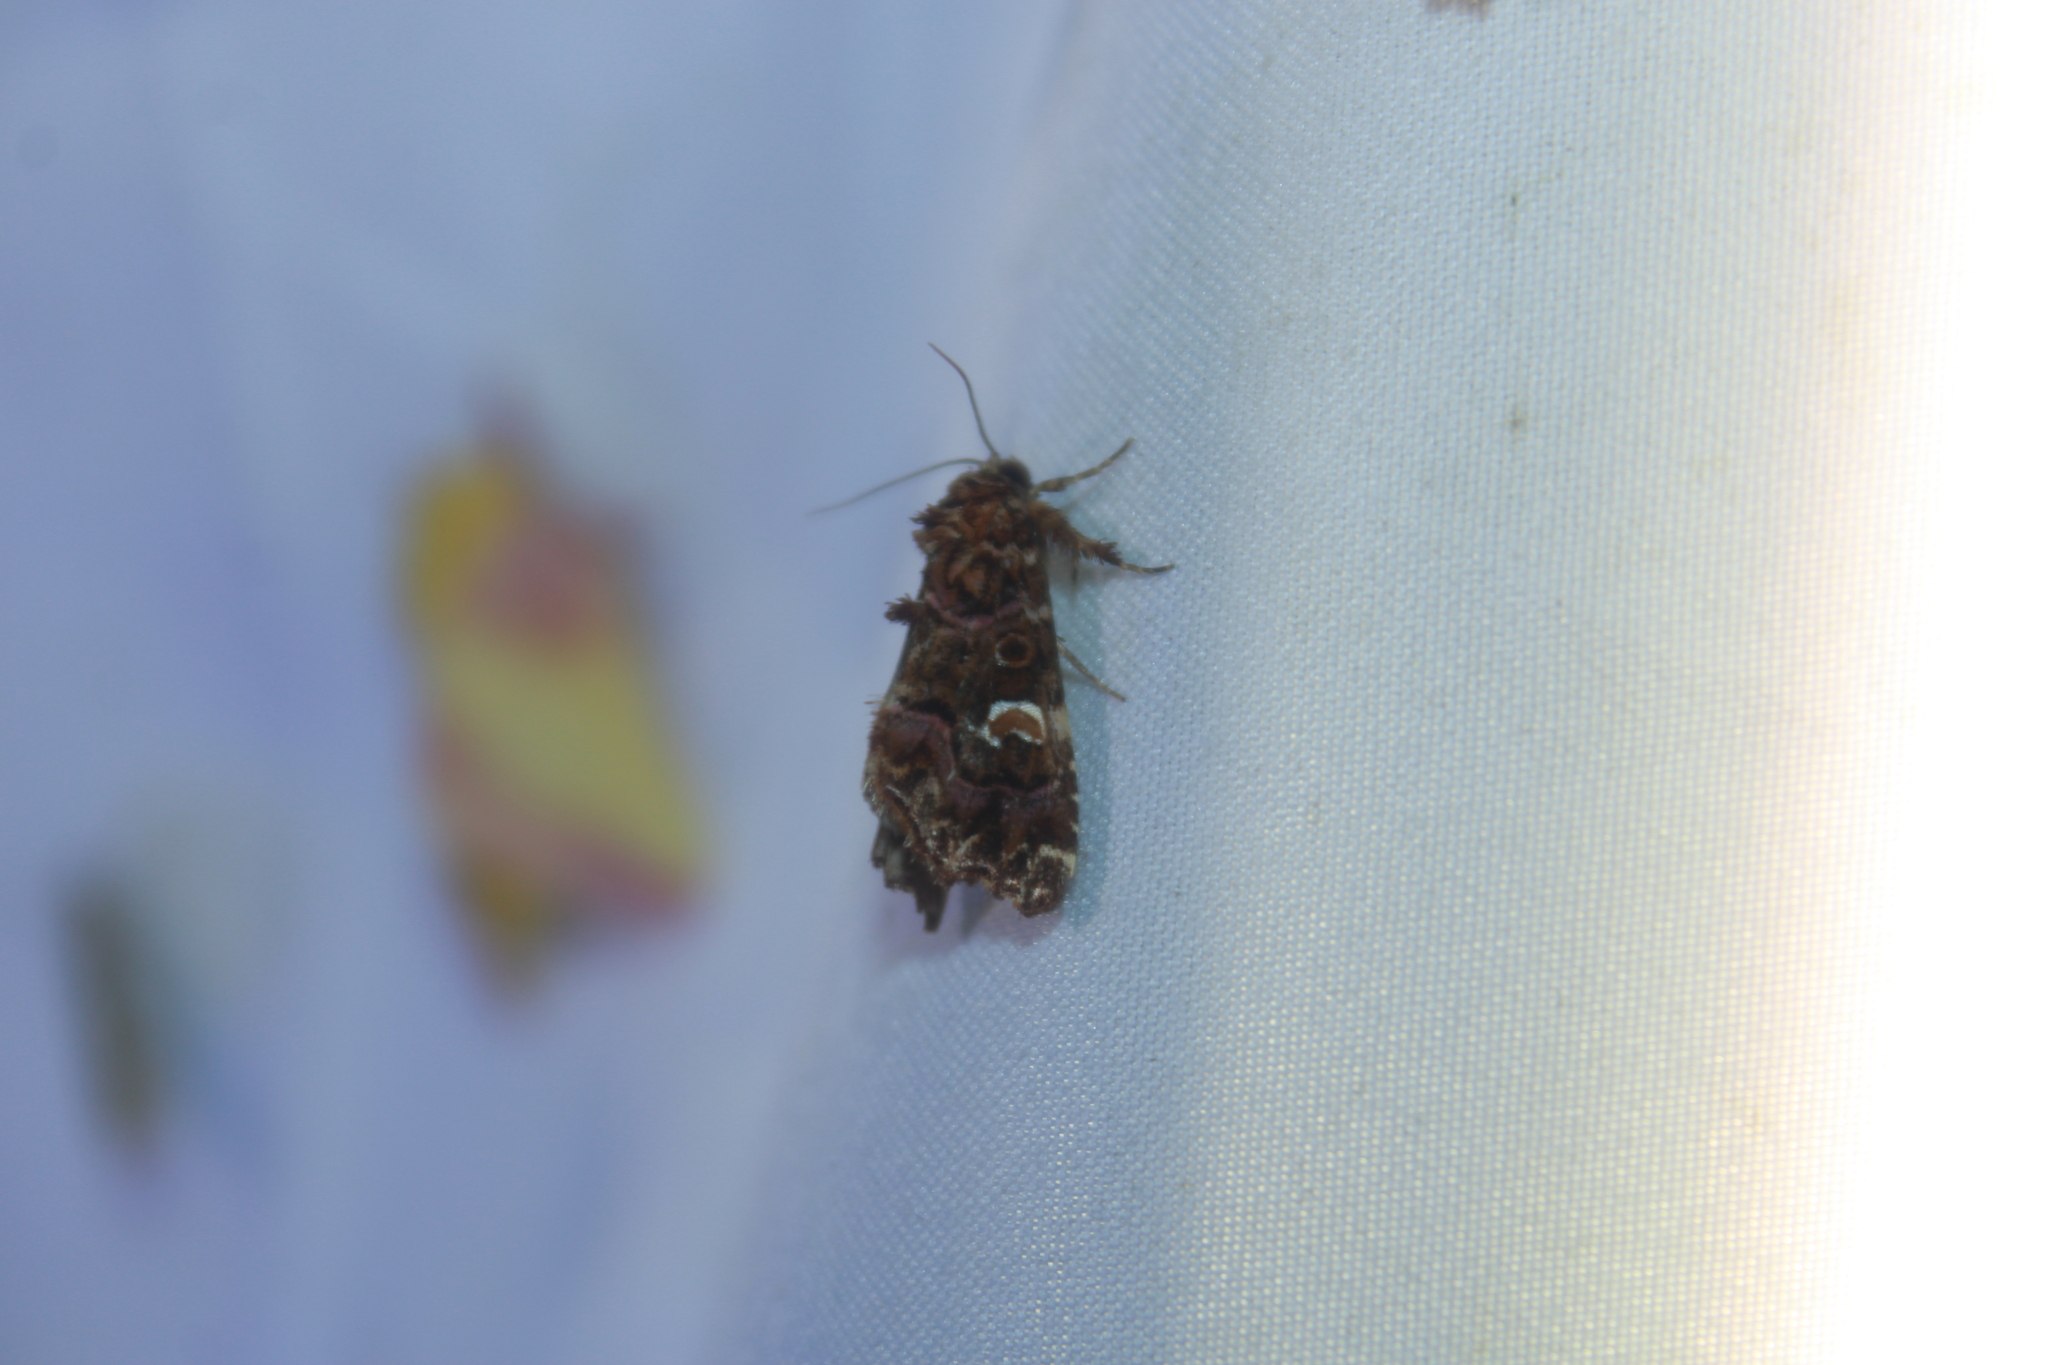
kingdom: Animalia
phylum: Arthropoda
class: Insecta
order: Lepidoptera
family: Noctuidae
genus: Callopistria
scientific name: Callopistria mollissima
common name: Pink-shaded fern moth
